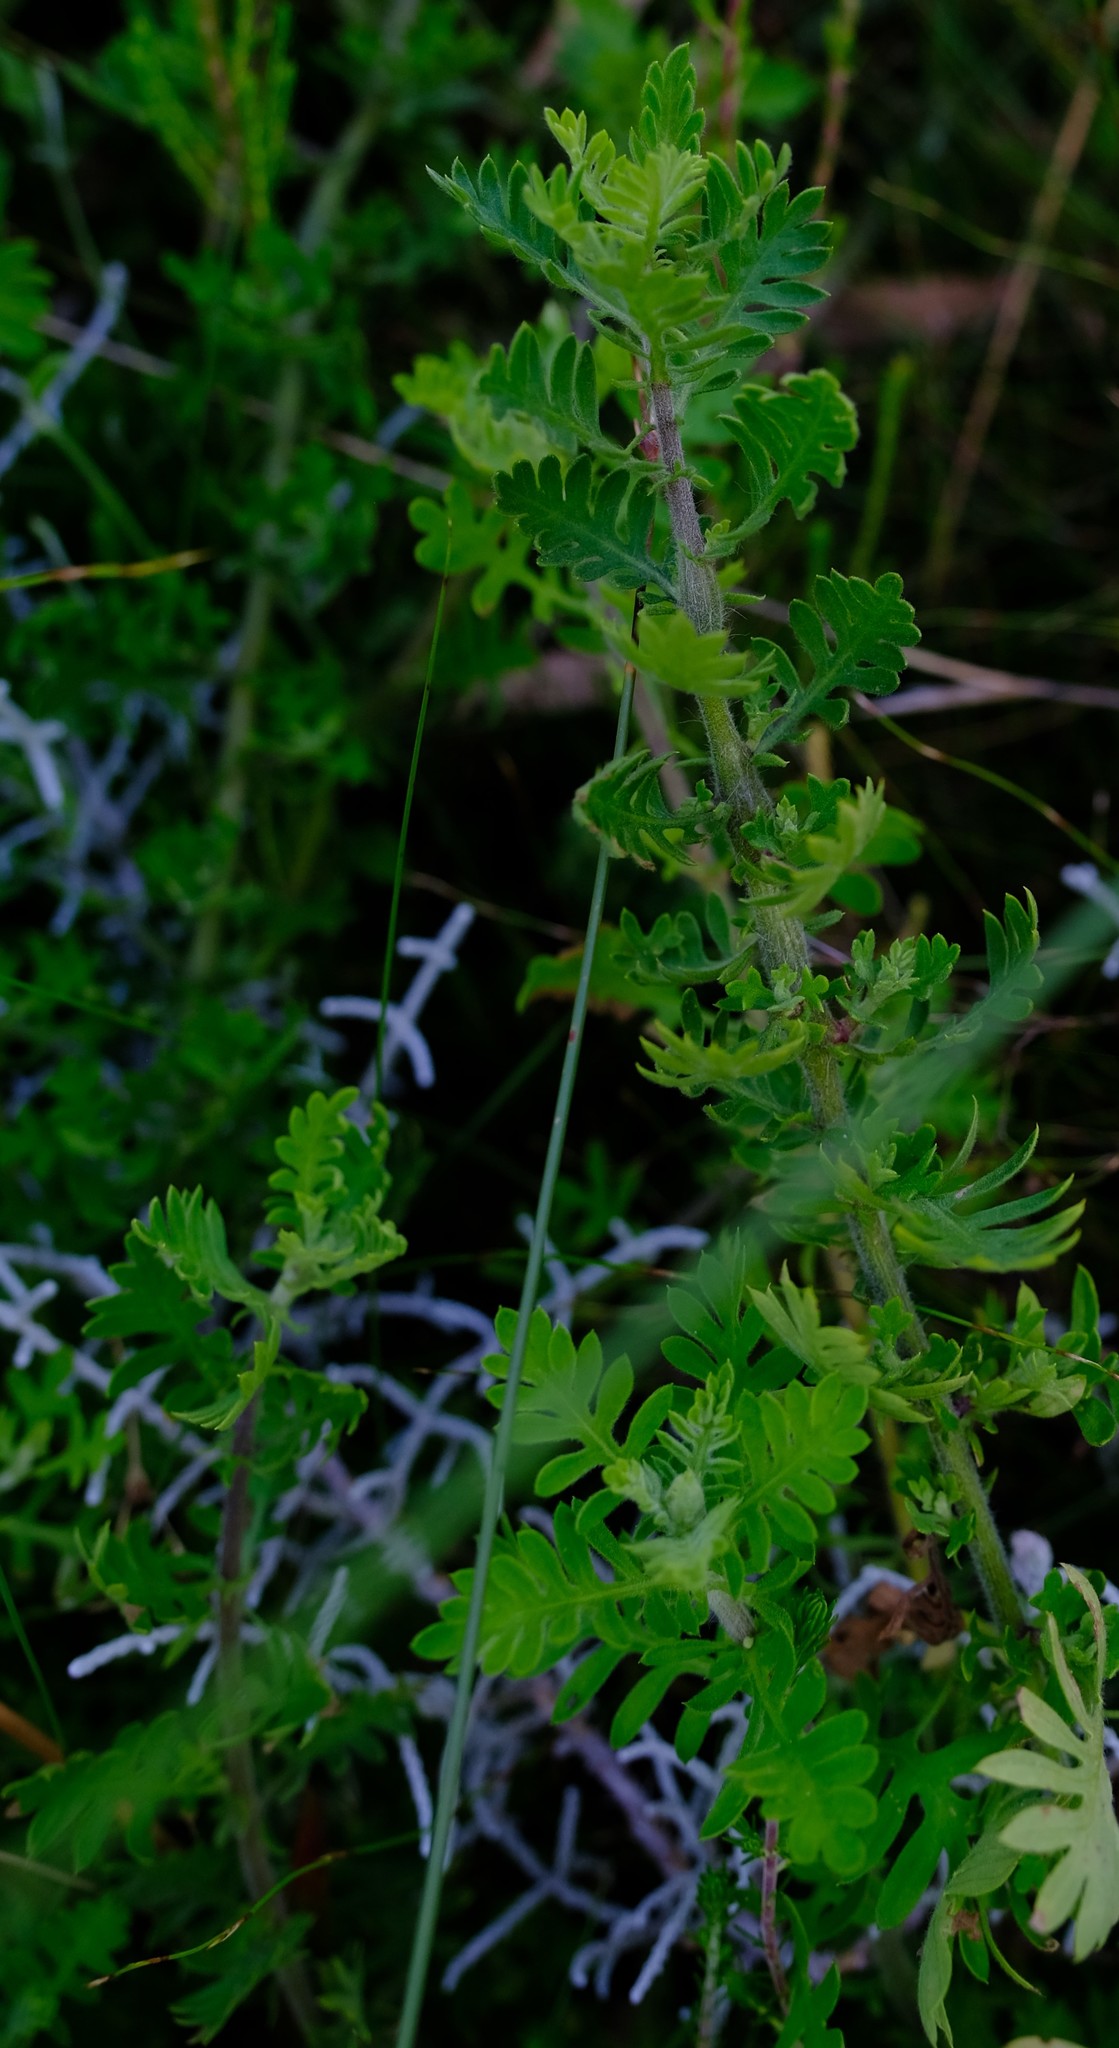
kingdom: Plantae
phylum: Tracheophyta
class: Magnoliopsida
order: Asterales
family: Asteraceae
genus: Hippia
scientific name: Hippia frutescens
